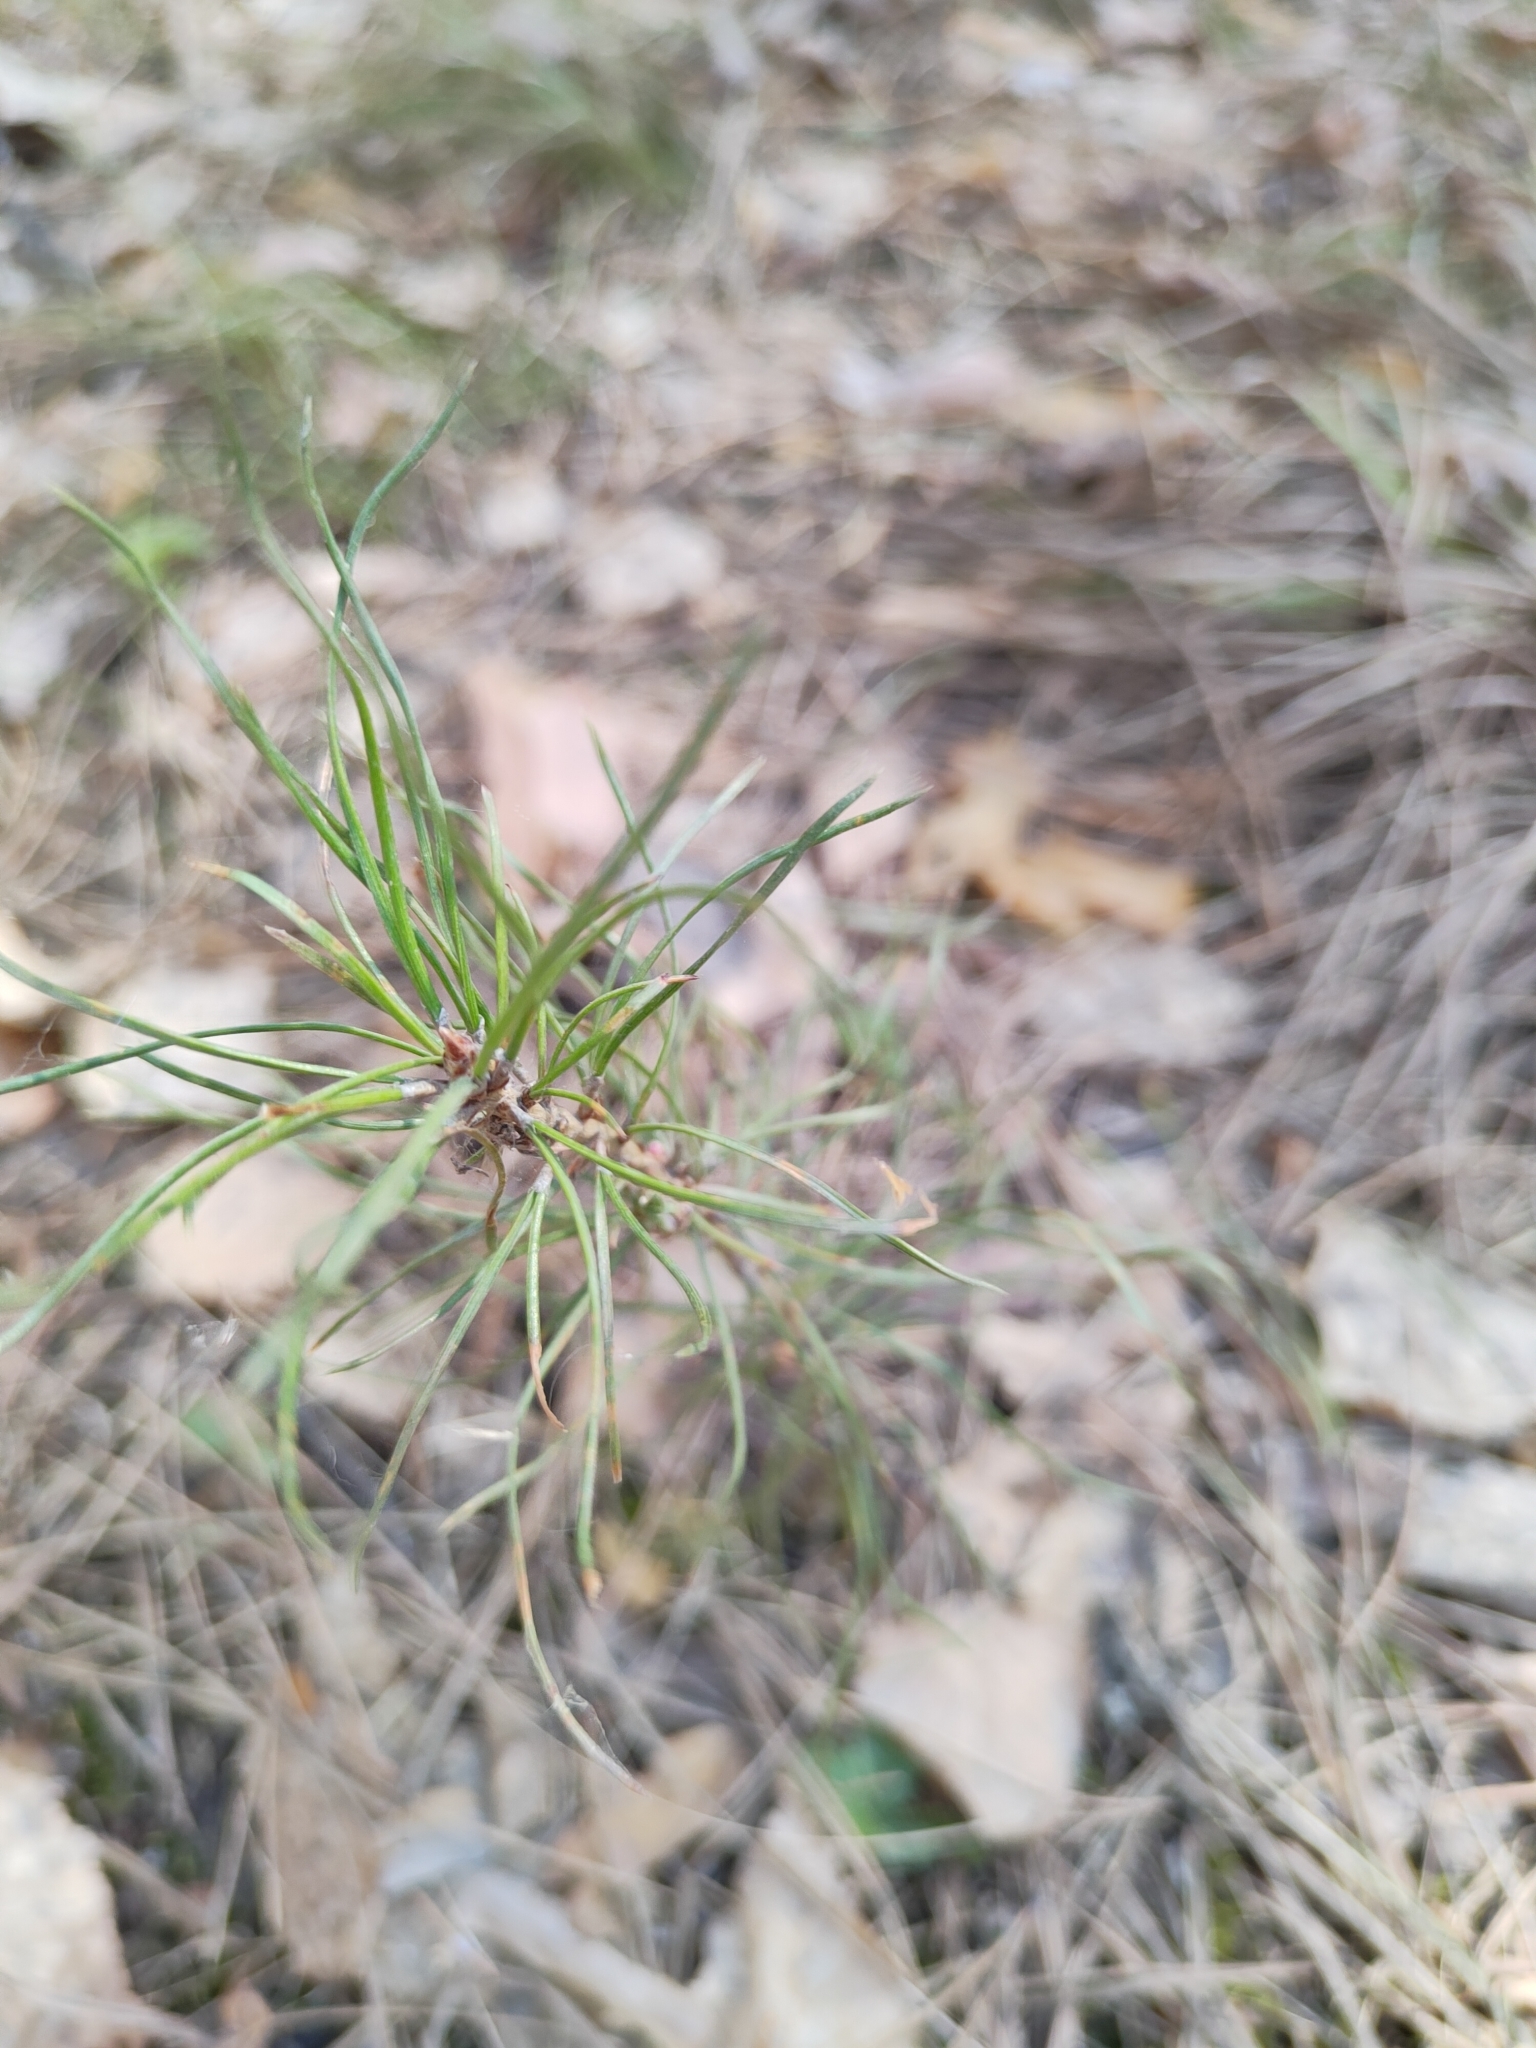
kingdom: Plantae
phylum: Tracheophyta
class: Pinopsida
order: Pinales
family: Pinaceae
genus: Pinus
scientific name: Pinus sylvestris
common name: Scots pine
